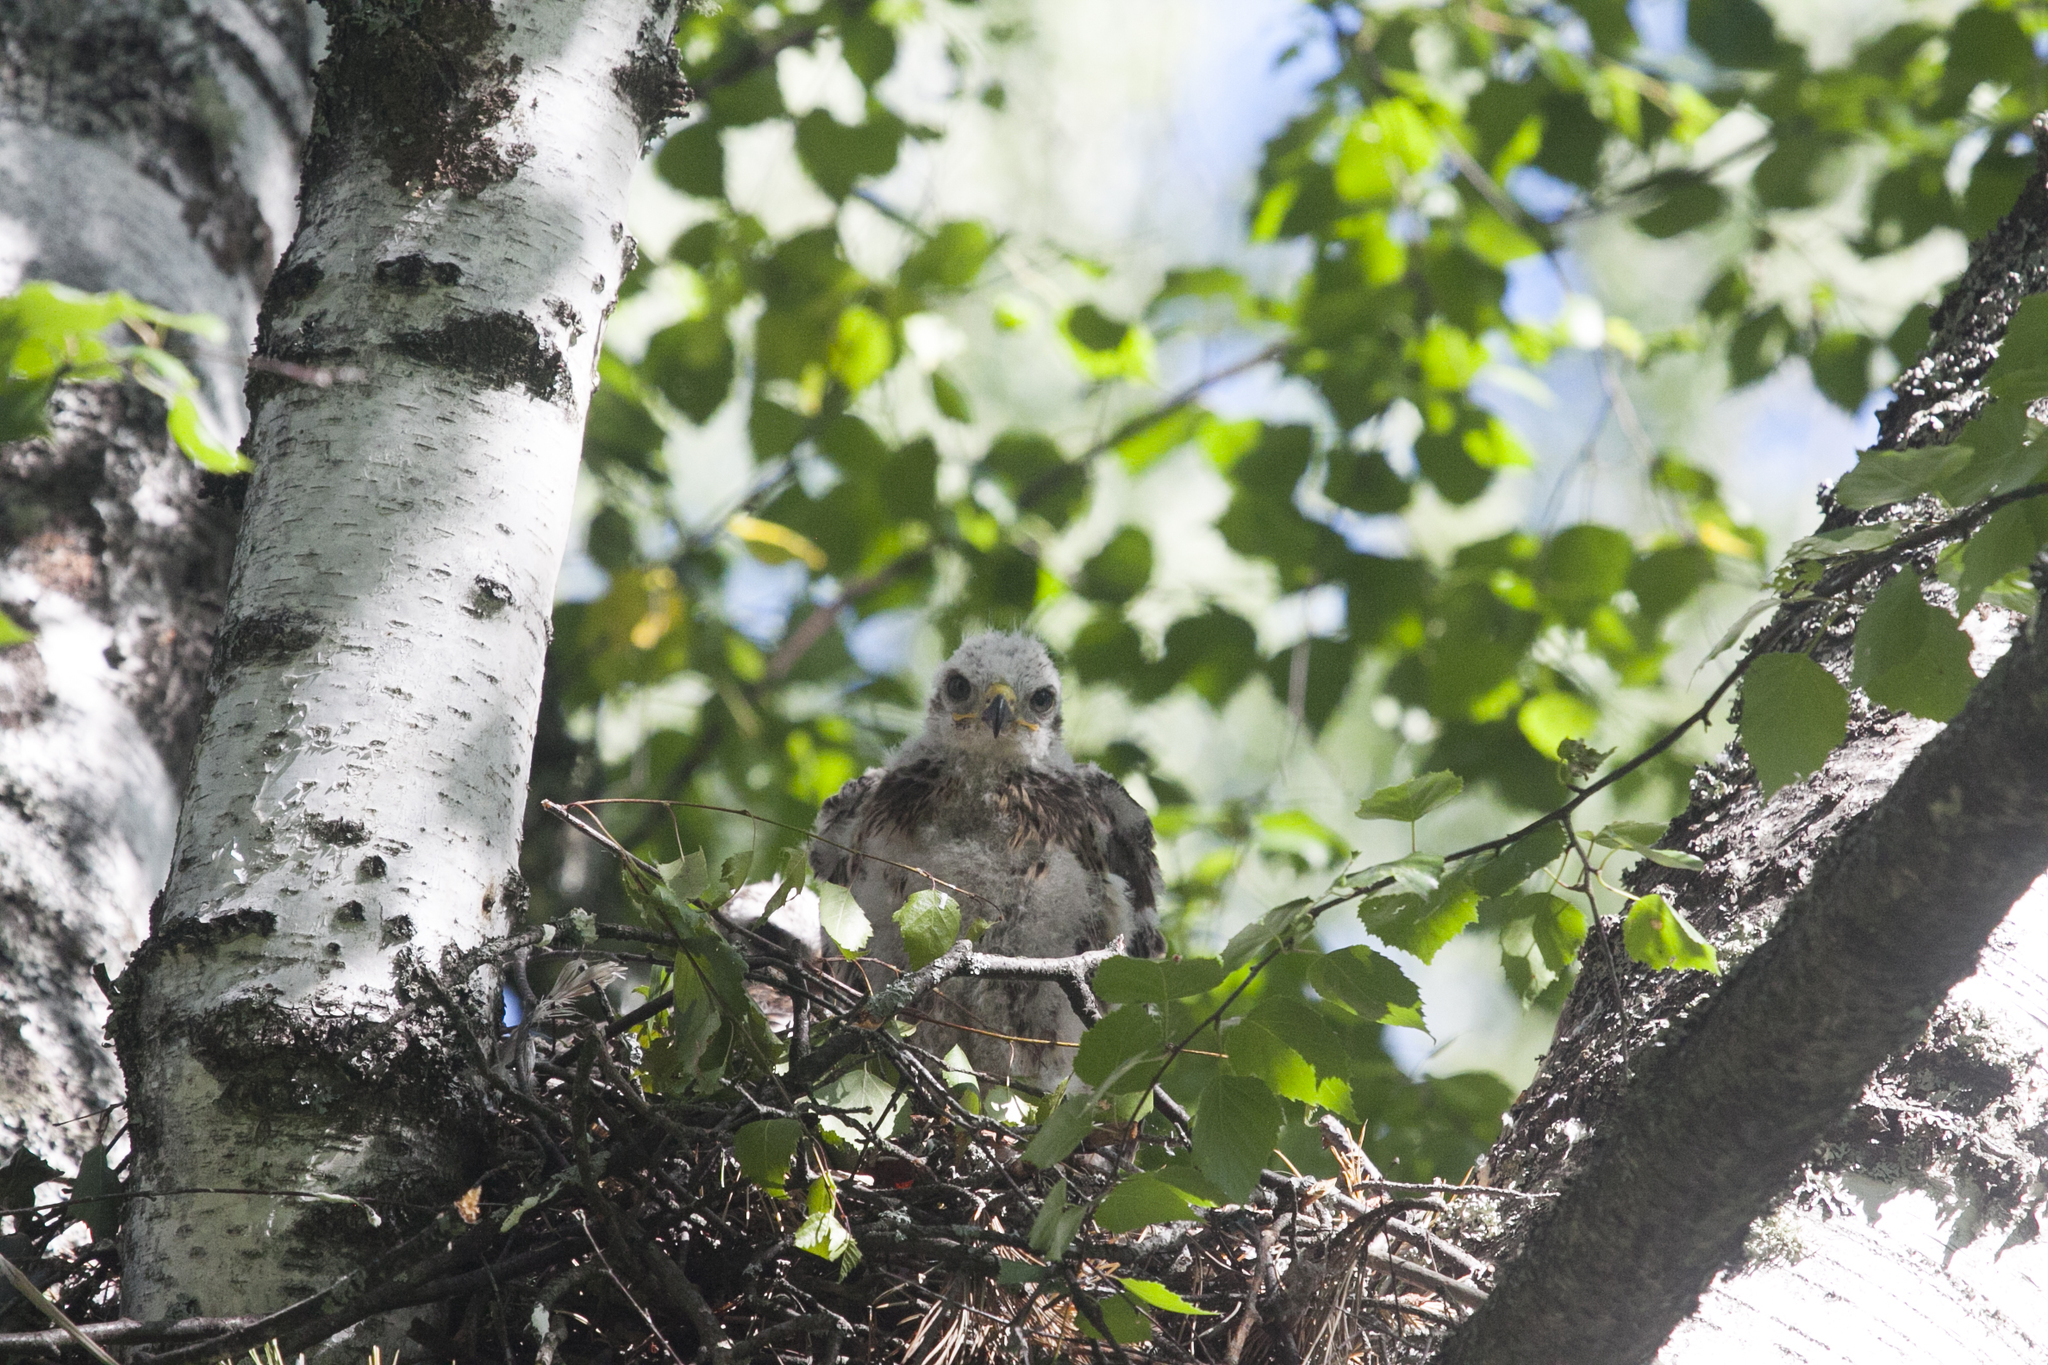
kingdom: Animalia
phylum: Chordata
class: Aves
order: Accipitriformes
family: Accipitridae
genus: Buteo
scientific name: Buteo buteo
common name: Common buzzard
